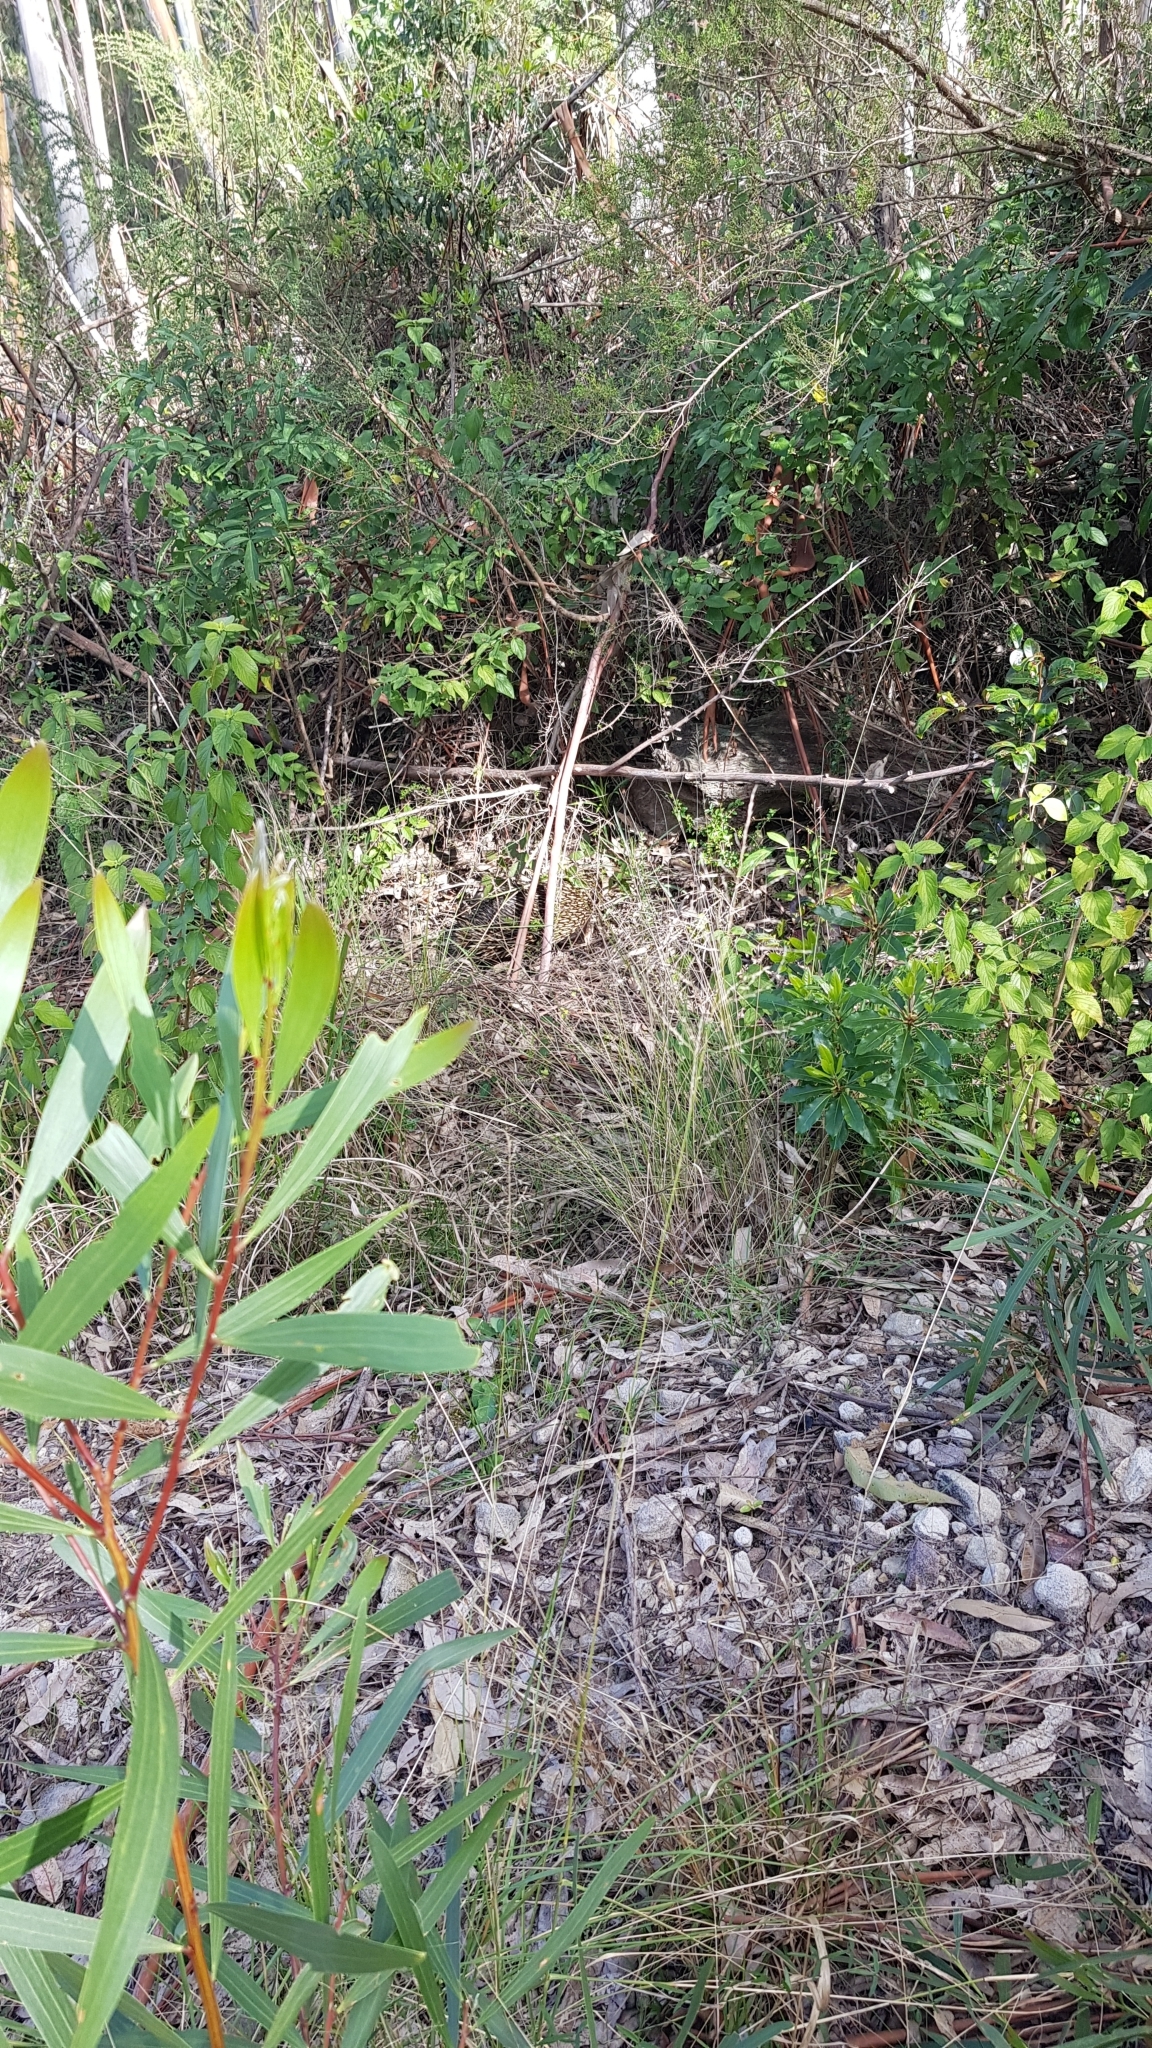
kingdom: Animalia
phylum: Chordata
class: Mammalia
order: Monotremata
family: Tachyglossidae
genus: Tachyglossus
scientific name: Tachyglossus aculeatus
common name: Short-beaked echidna
